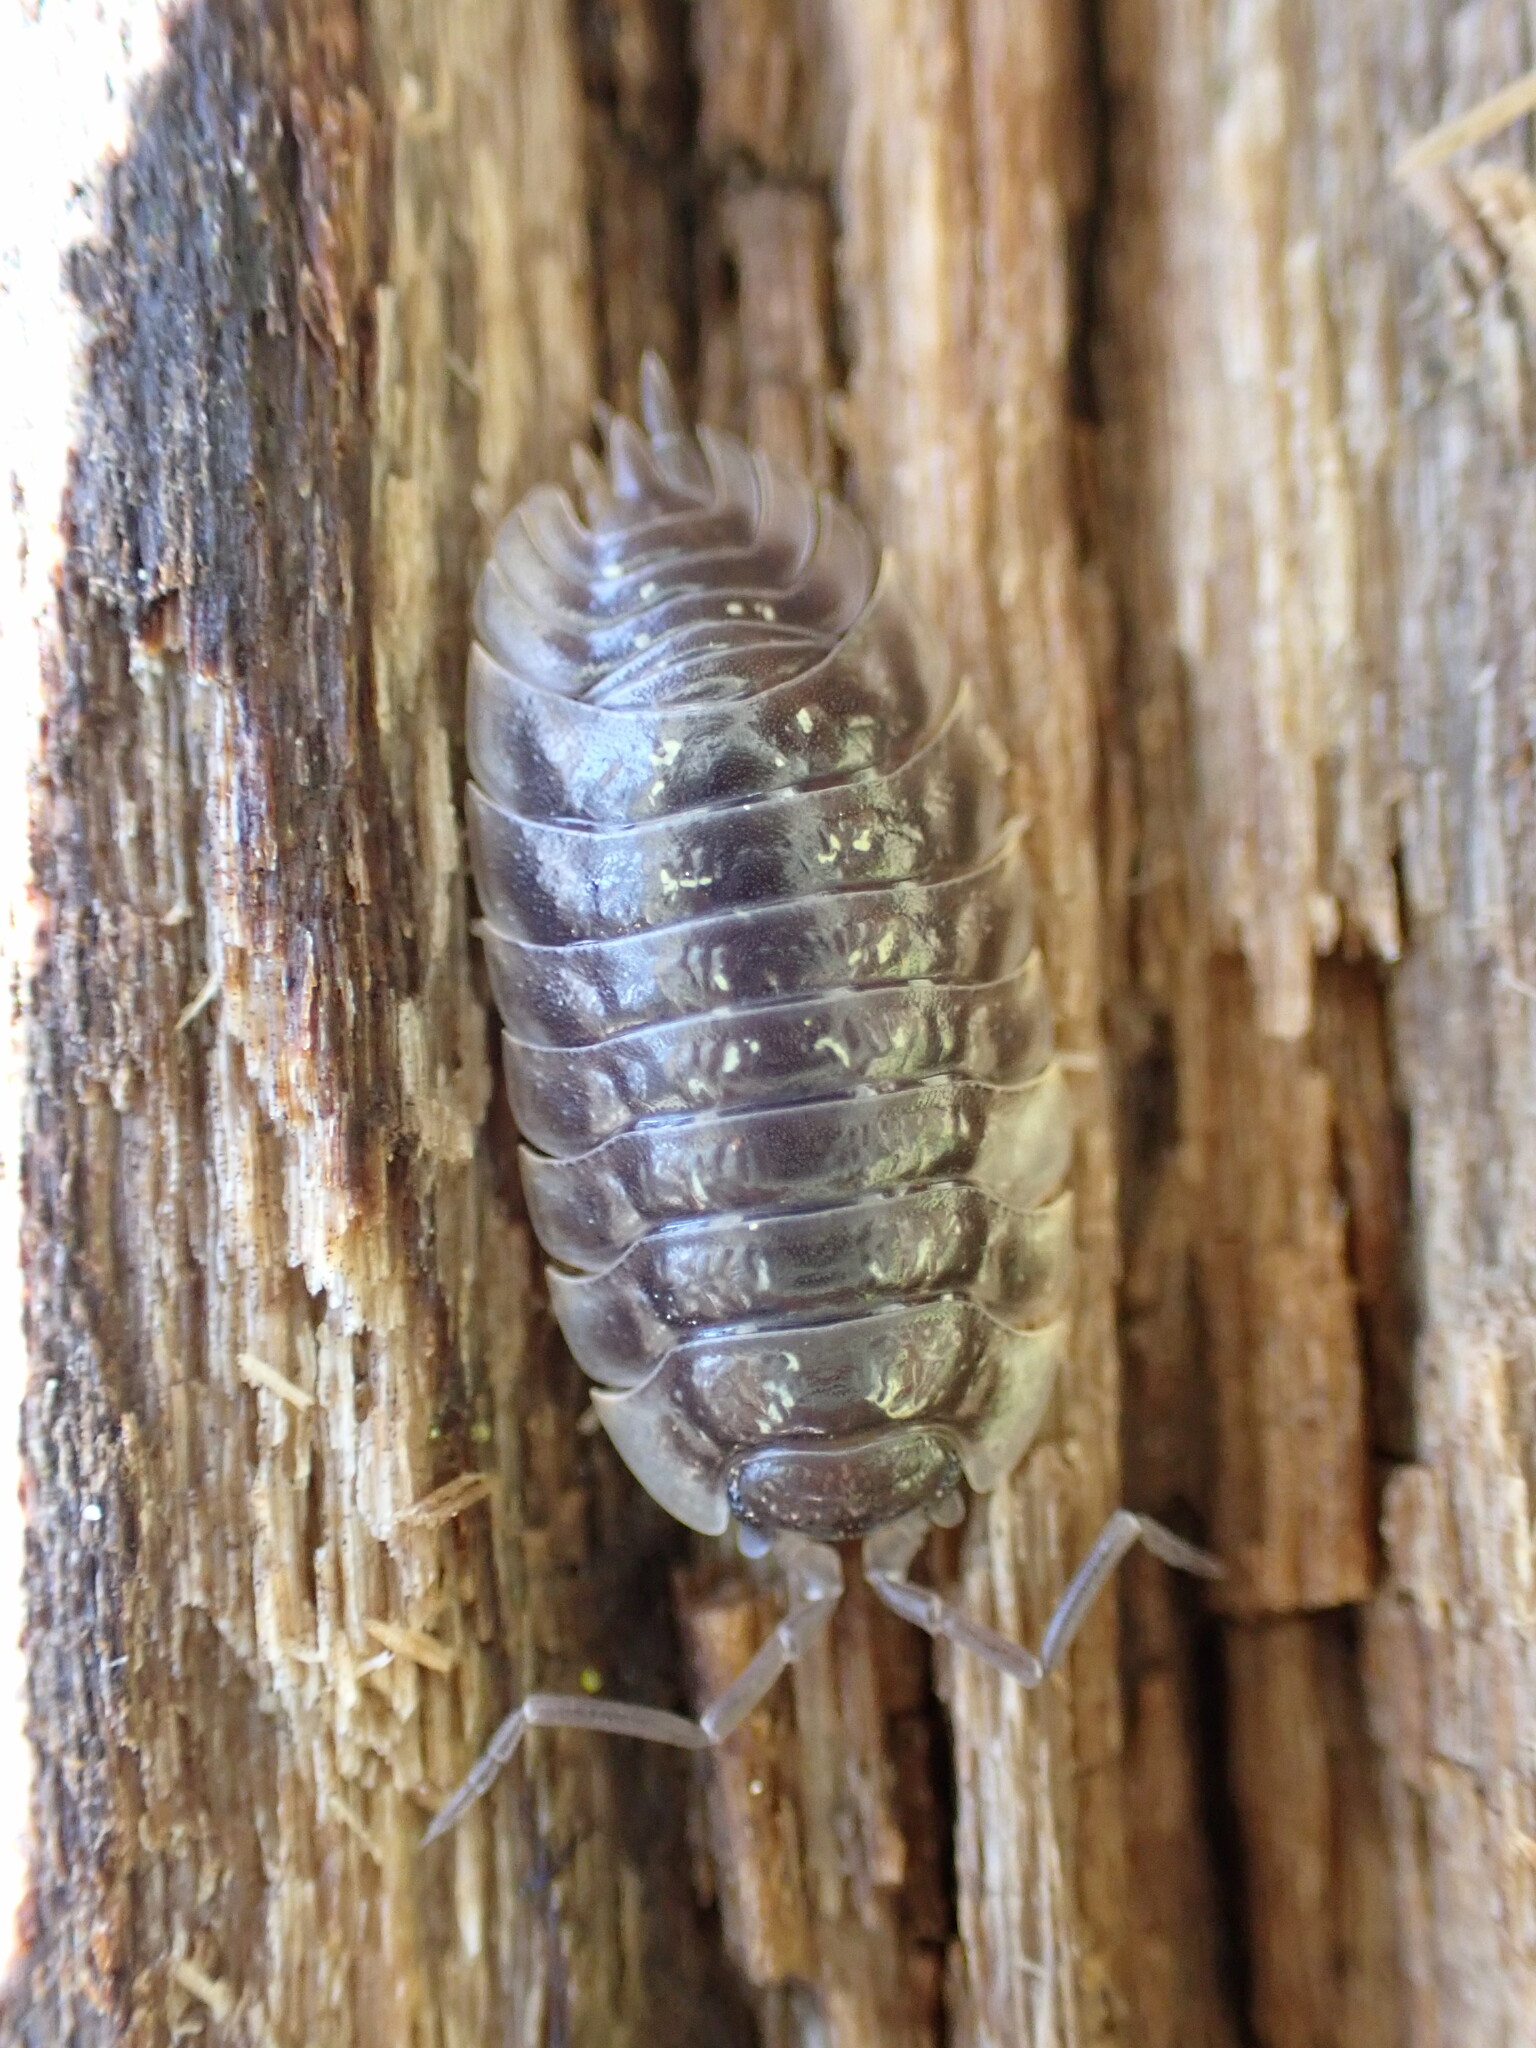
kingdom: Animalia
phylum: Arthropoda
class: Malacostraca
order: Isopoda
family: Oniscidae
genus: Oniscus
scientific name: Oniscus asellus
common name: Common shiny woodlouse
